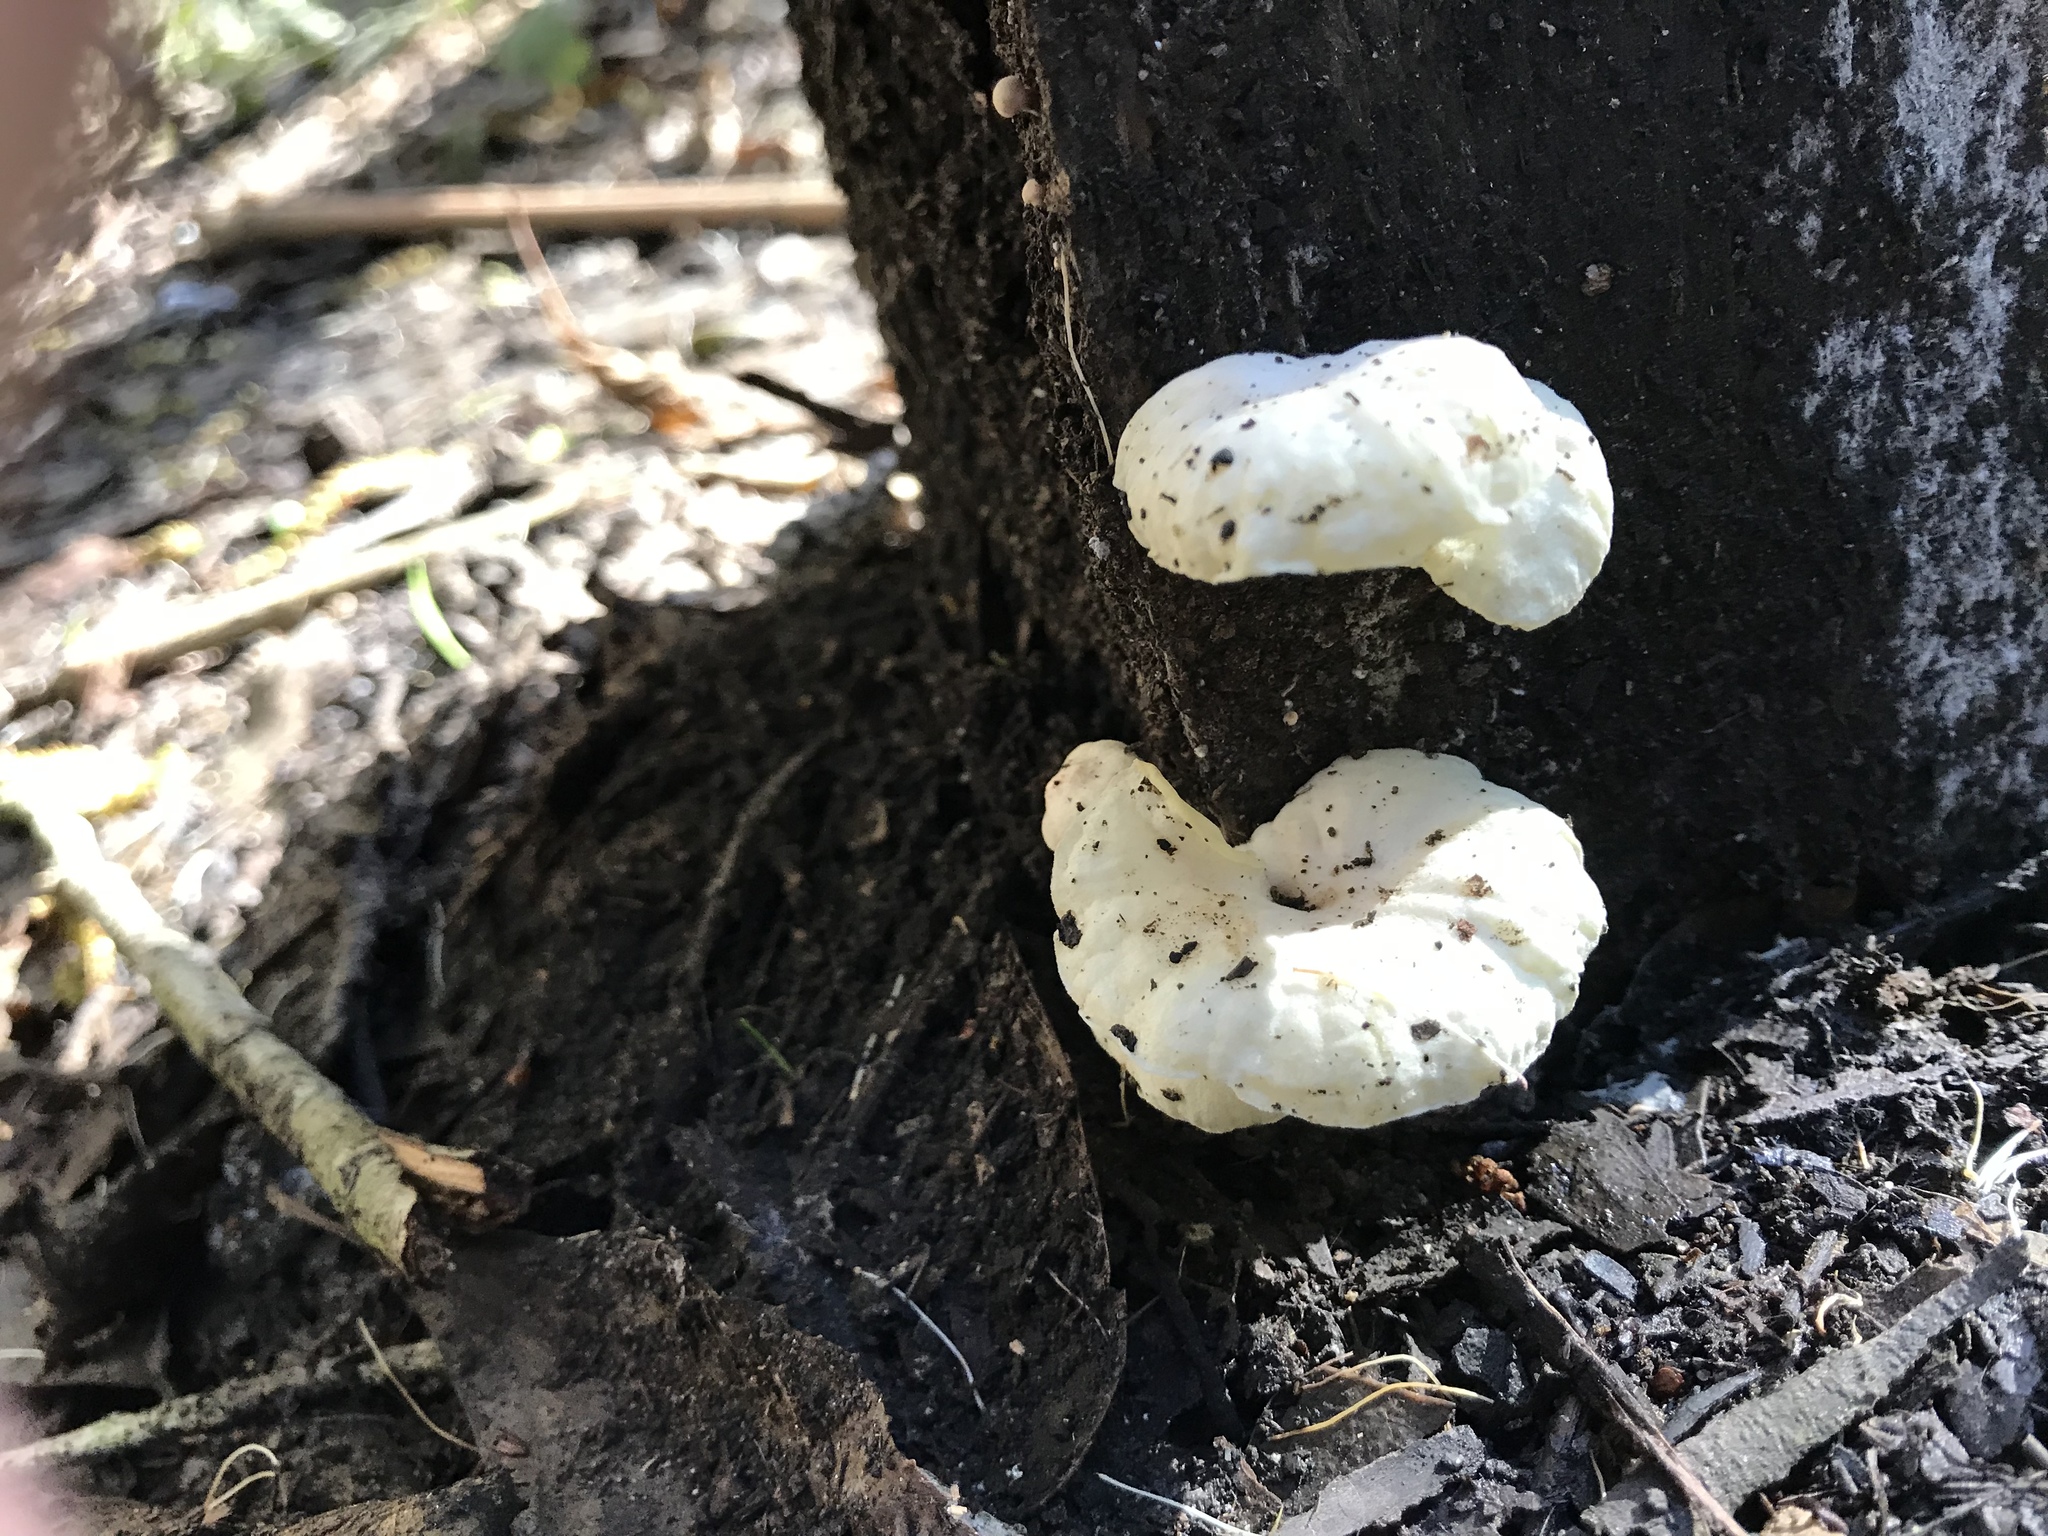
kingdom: Fungi
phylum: Basidiomycota
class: Agaricomycetes
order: Agaricales
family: Omphalotaceae
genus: Marasmiellus
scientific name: Marasmiellus candidus
